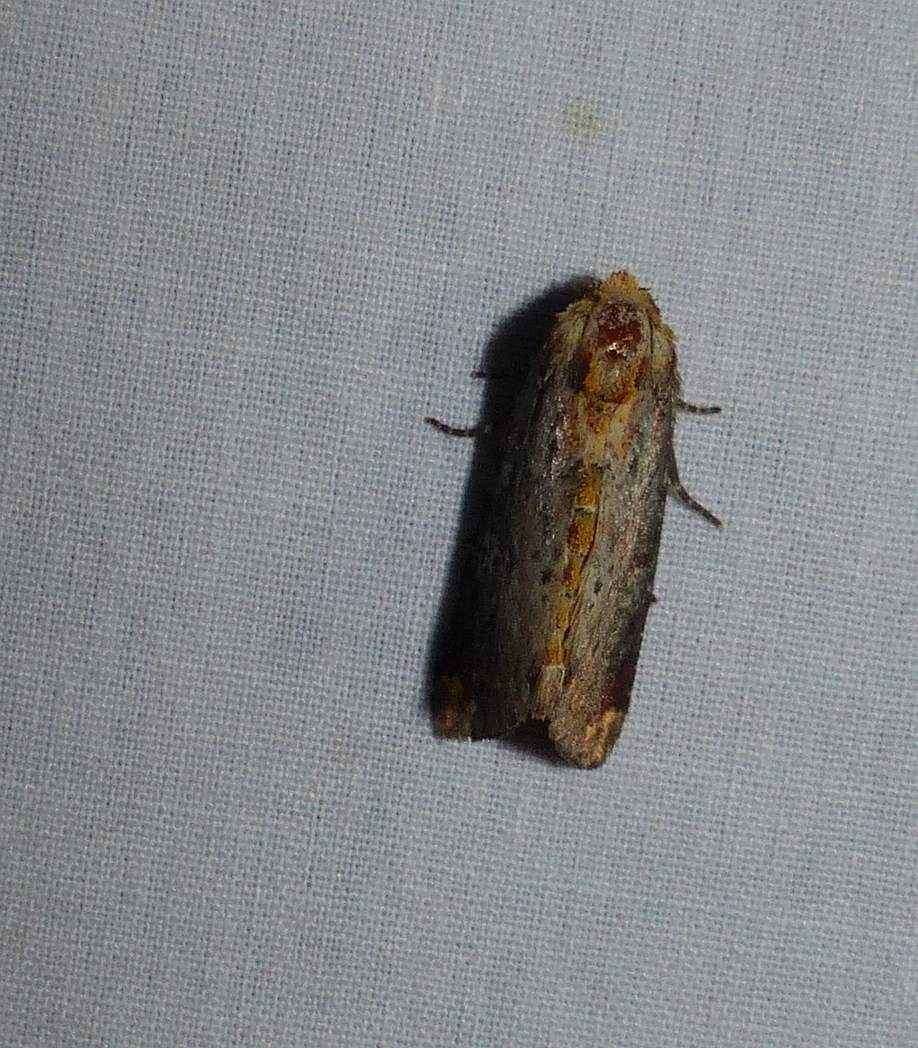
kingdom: Animalia
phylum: Arthropoda
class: Insecta
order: Lepidoptera
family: Noctuidae
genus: Achatodes
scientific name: Achatodes zeae
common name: Elder shoot borer
